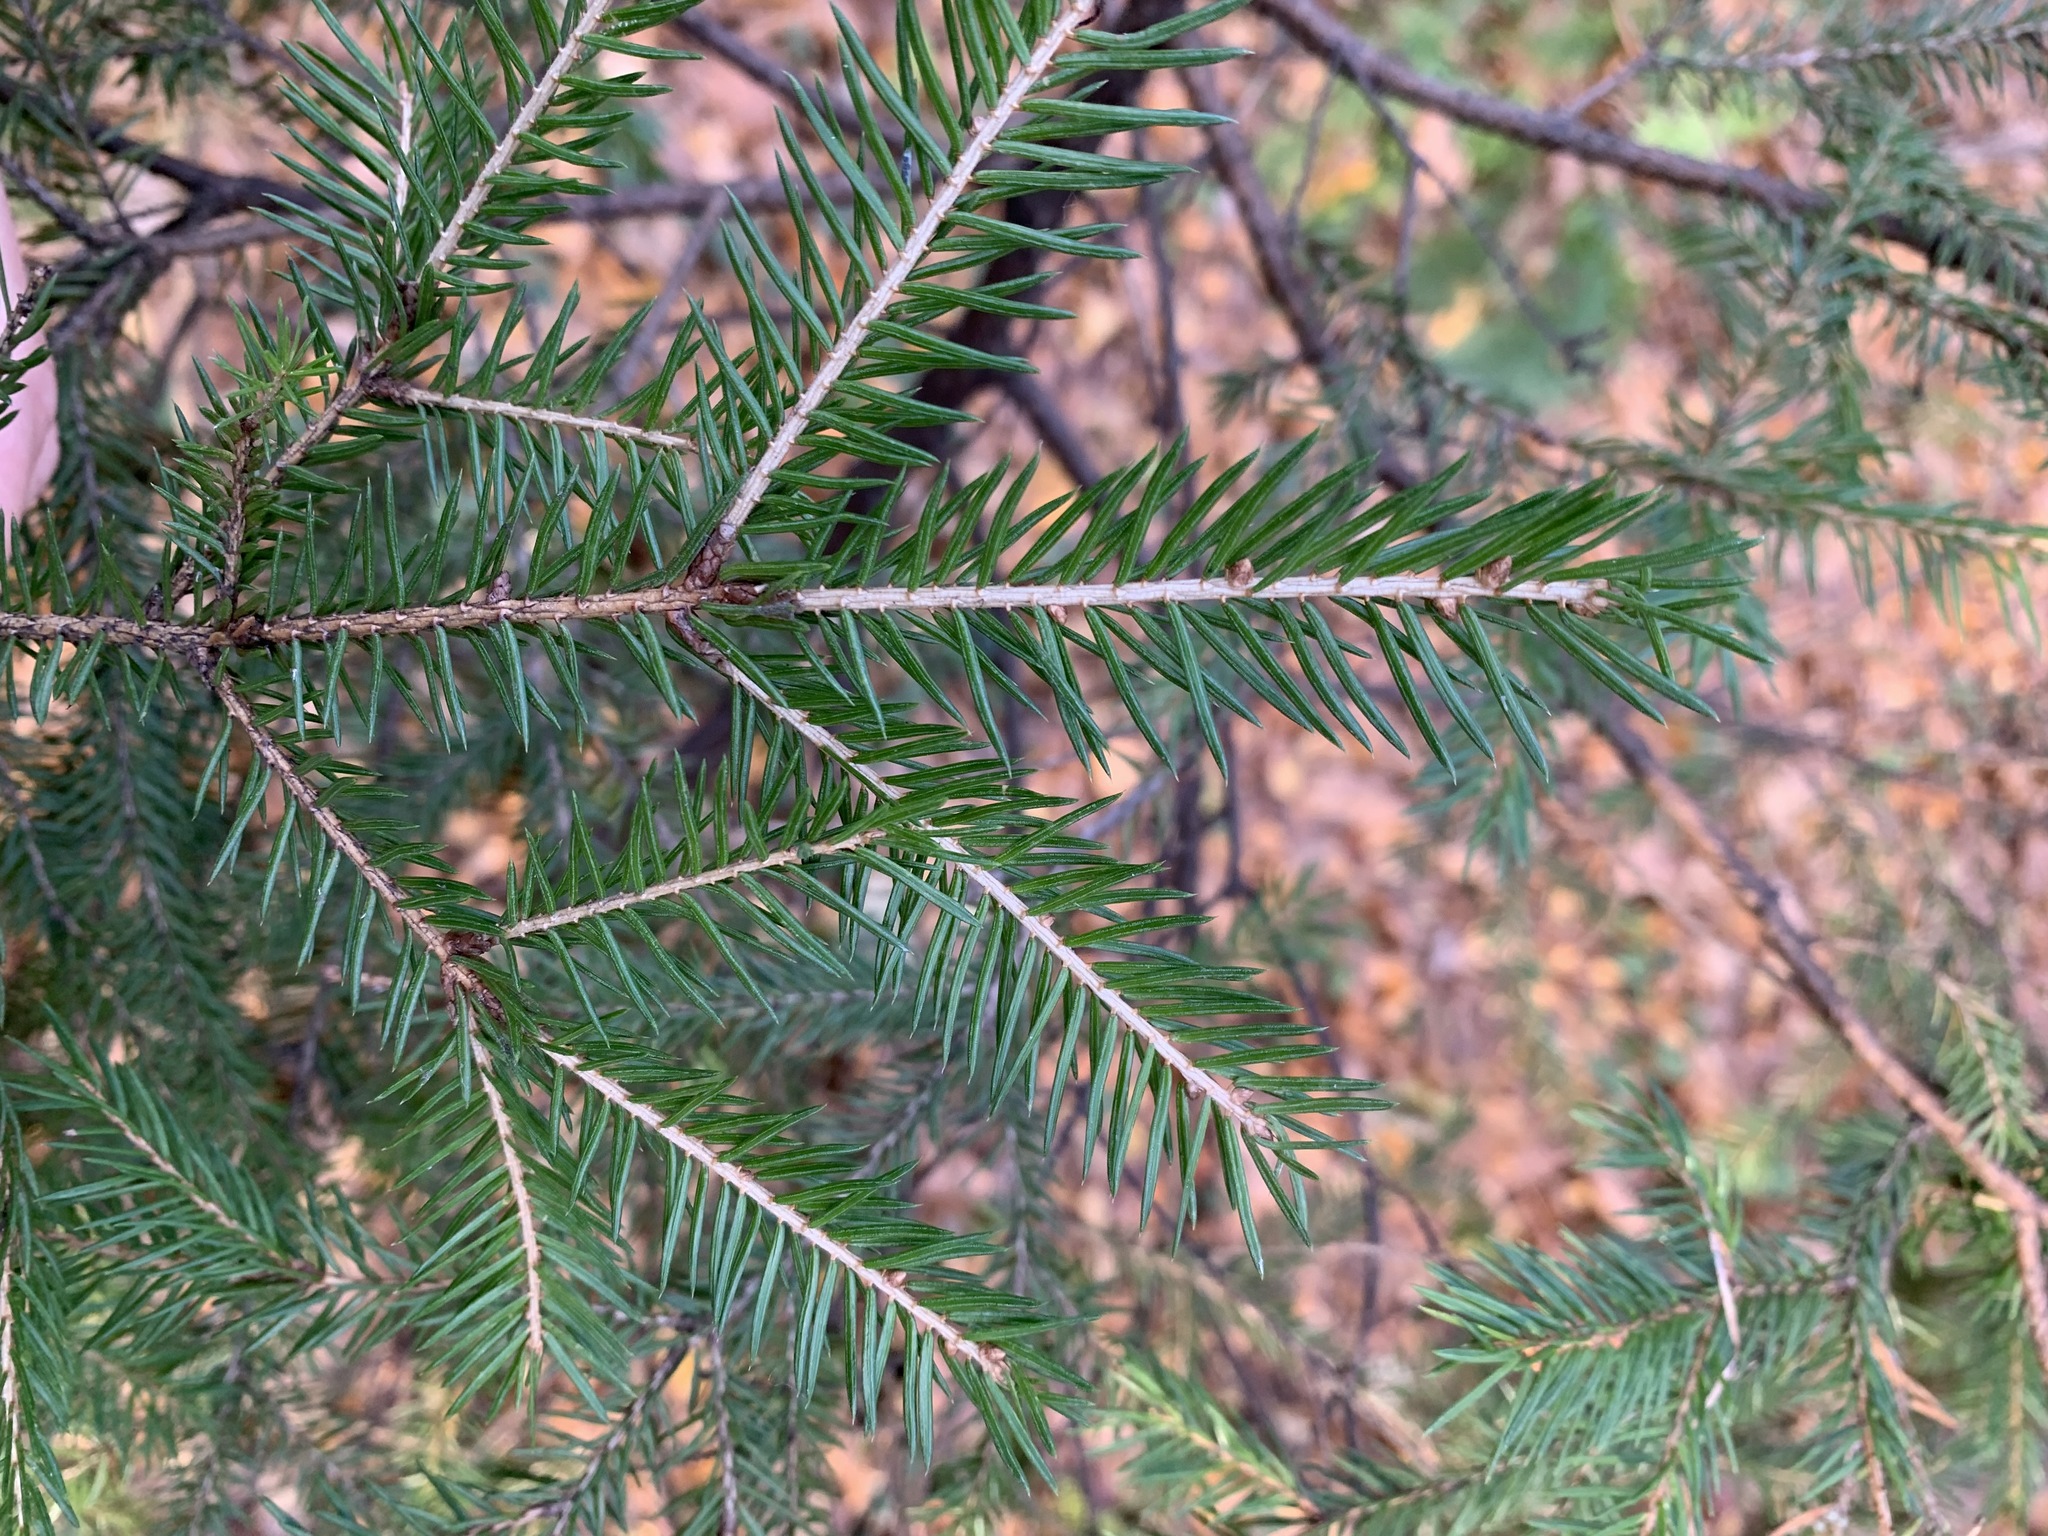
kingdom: Plantae
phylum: Tracheophyta
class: Pinopsida
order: Pinales
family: Pinaceae
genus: Picea
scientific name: Picea abies
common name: Norway spruce
